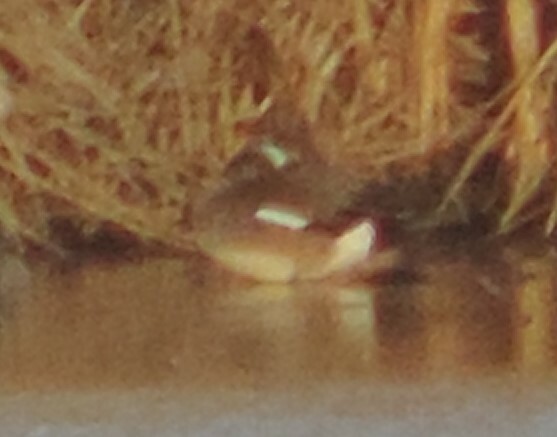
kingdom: Animalia
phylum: Chordata
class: Aves
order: Anseriformes
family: Anatidae
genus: Mareca
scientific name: Mareca americana
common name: American wigeon
